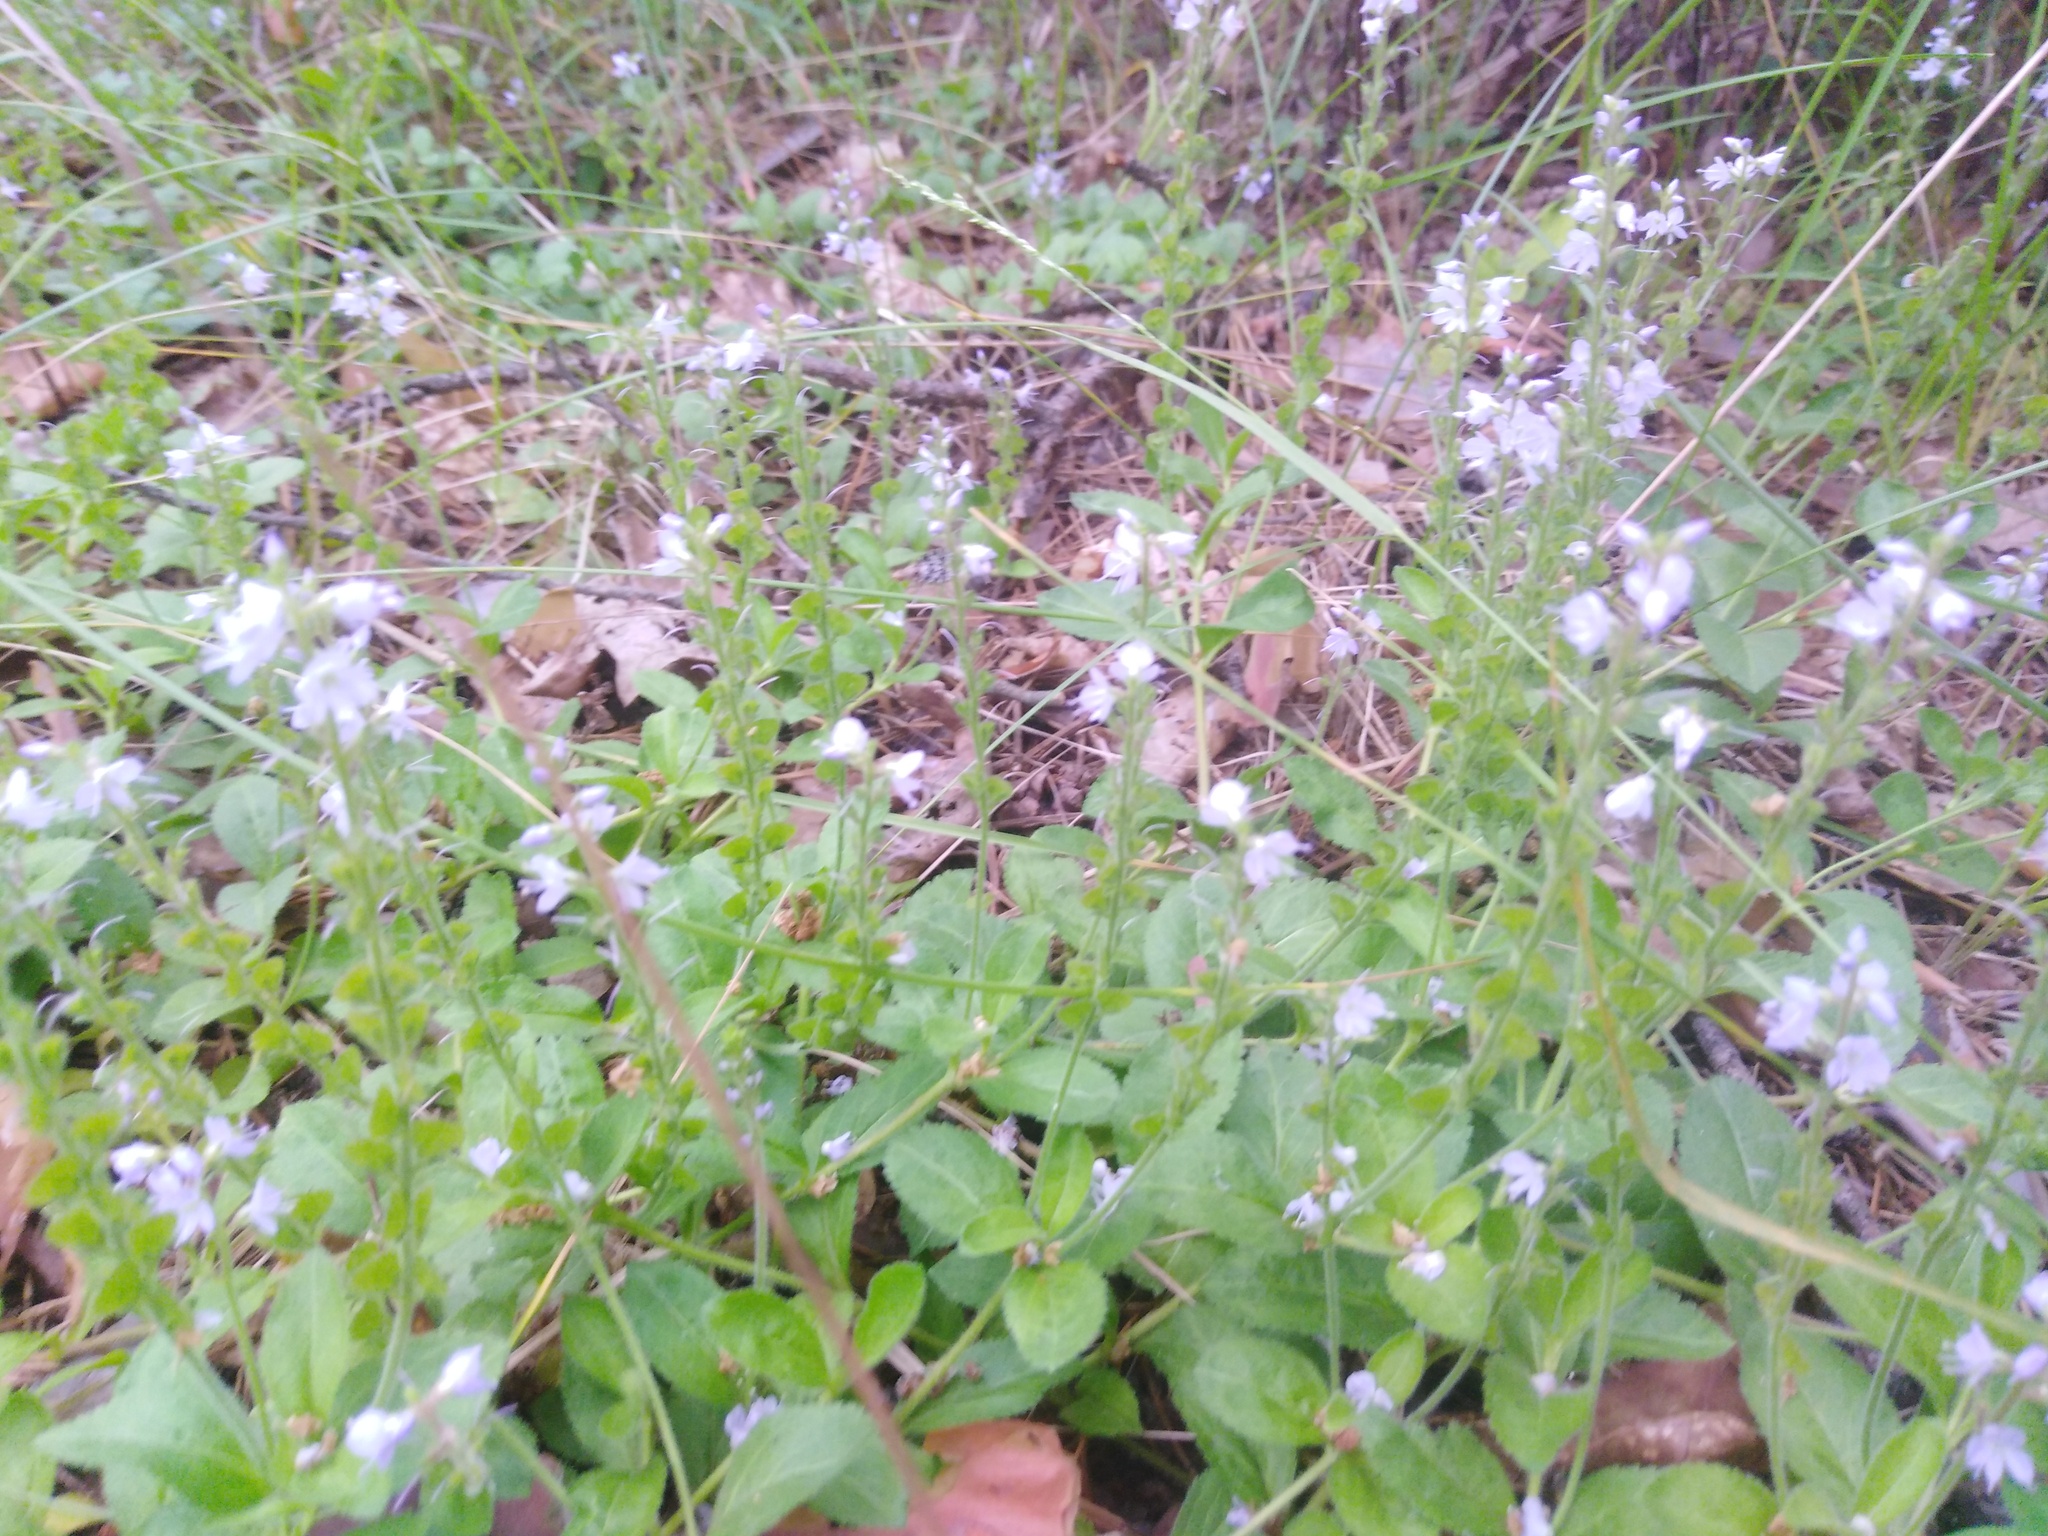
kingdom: Plantae
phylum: Tracheophyta
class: Magnoliopsida
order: Lamiales
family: Plantaginaceae
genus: Veronica
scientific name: Veronica officinalis
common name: Common speedwell
